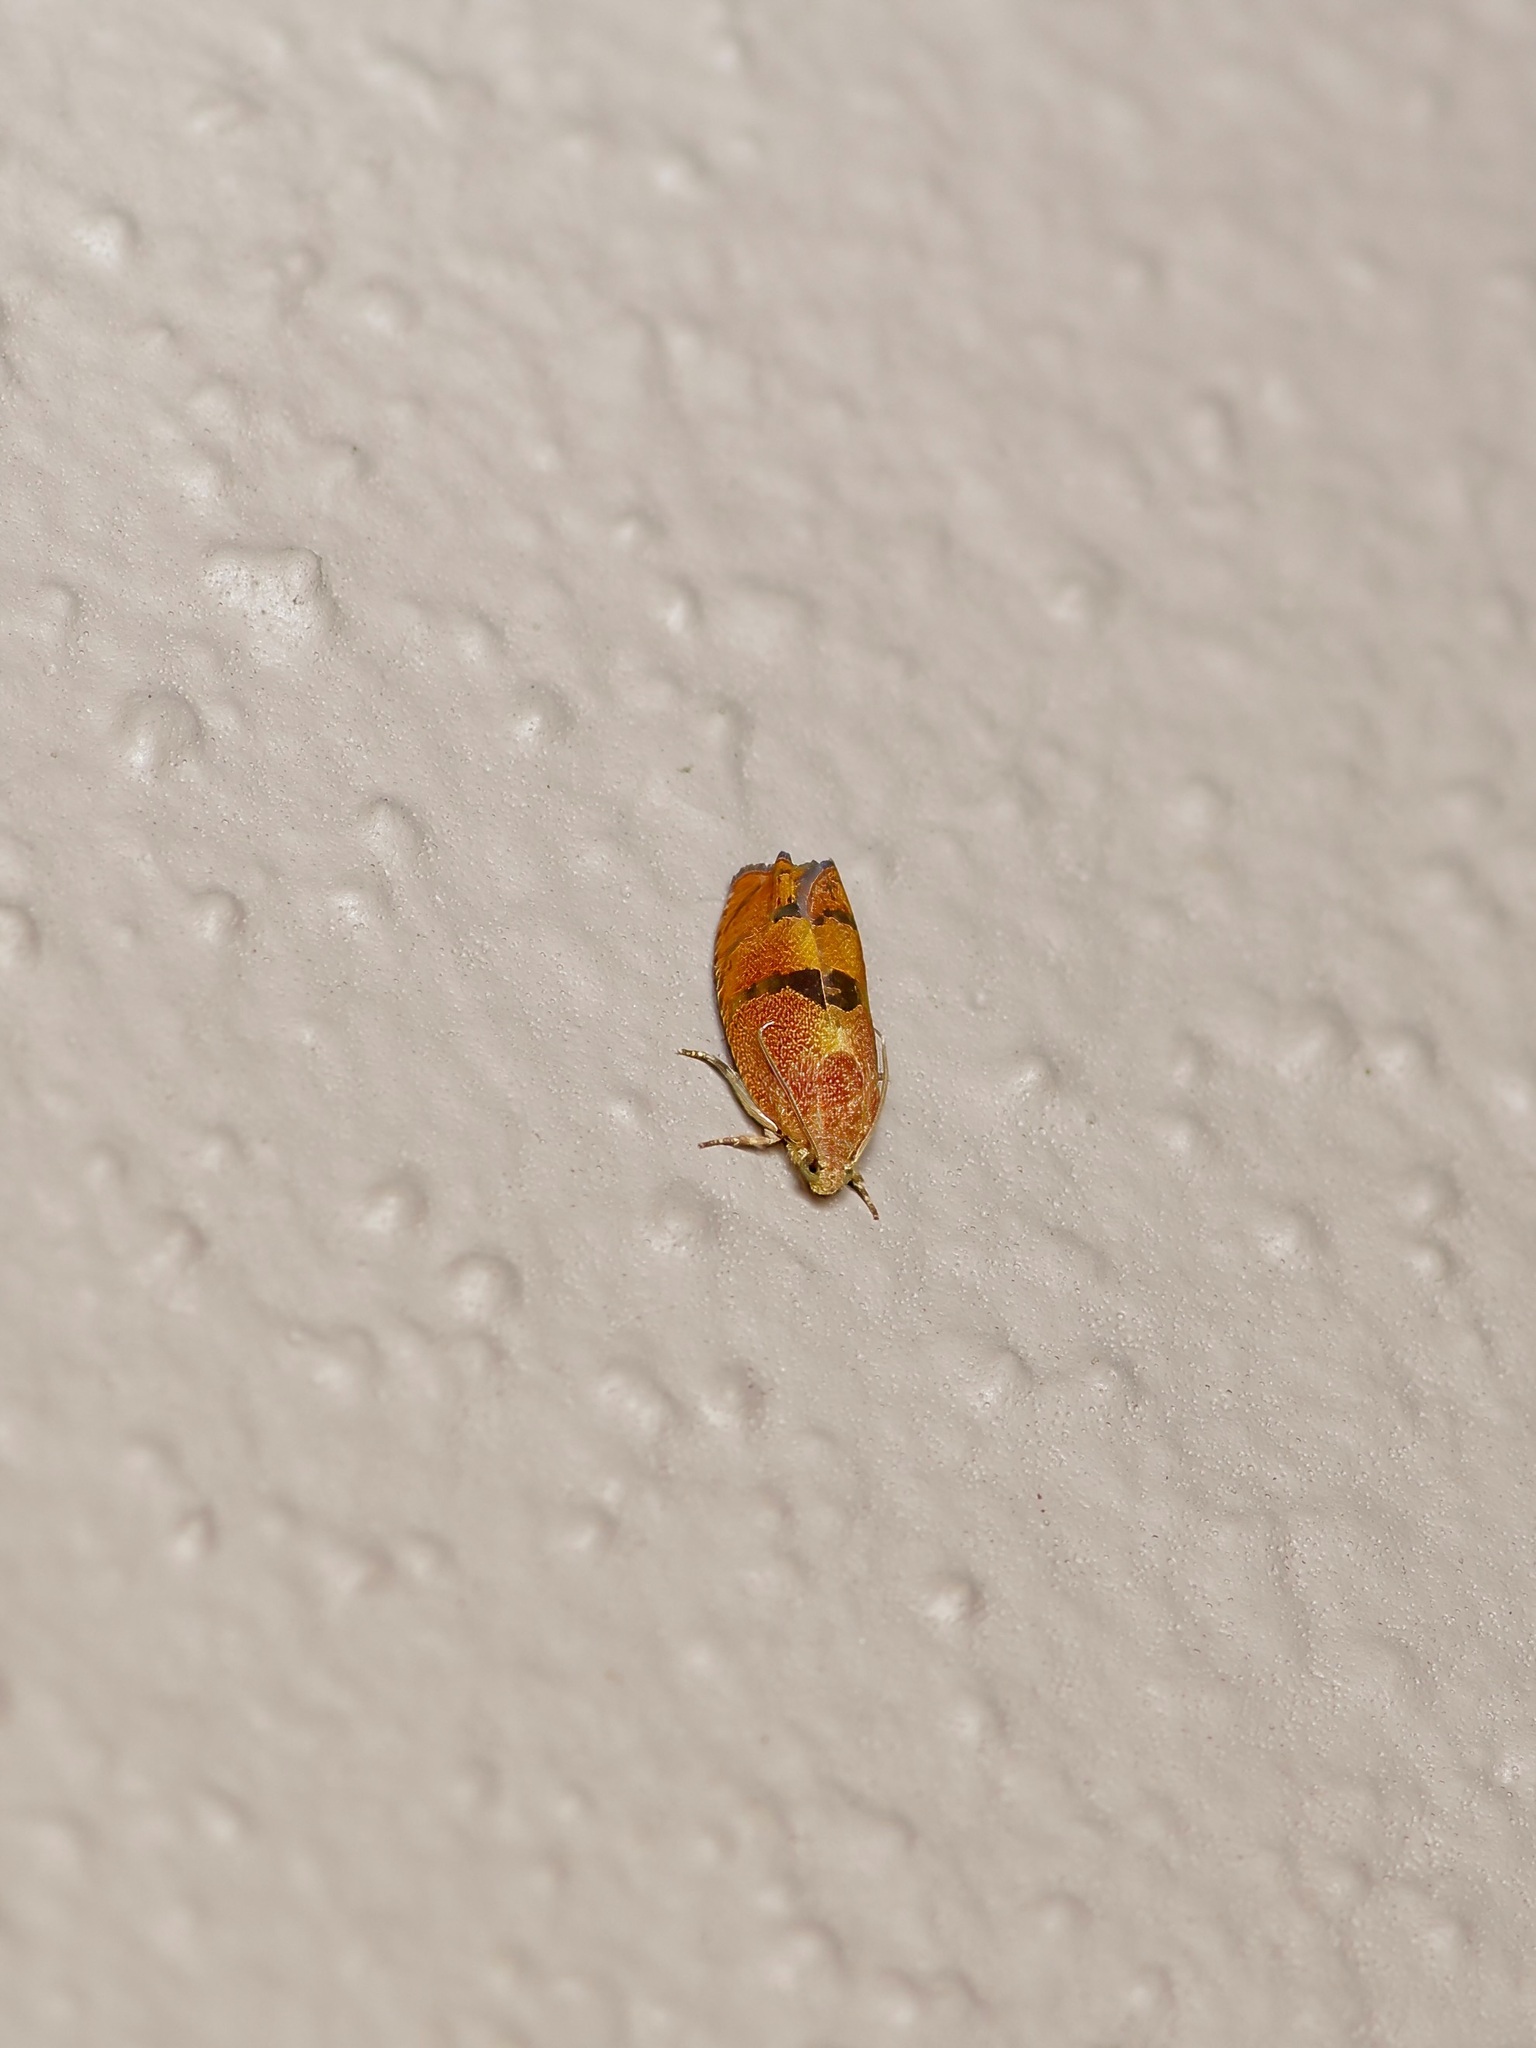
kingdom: Animalia
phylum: Arthropoda
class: Insecta
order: Lepidoptera
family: Tortricidae
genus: Cydia
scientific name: Cydia latiferreana
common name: Filbertworm moth
